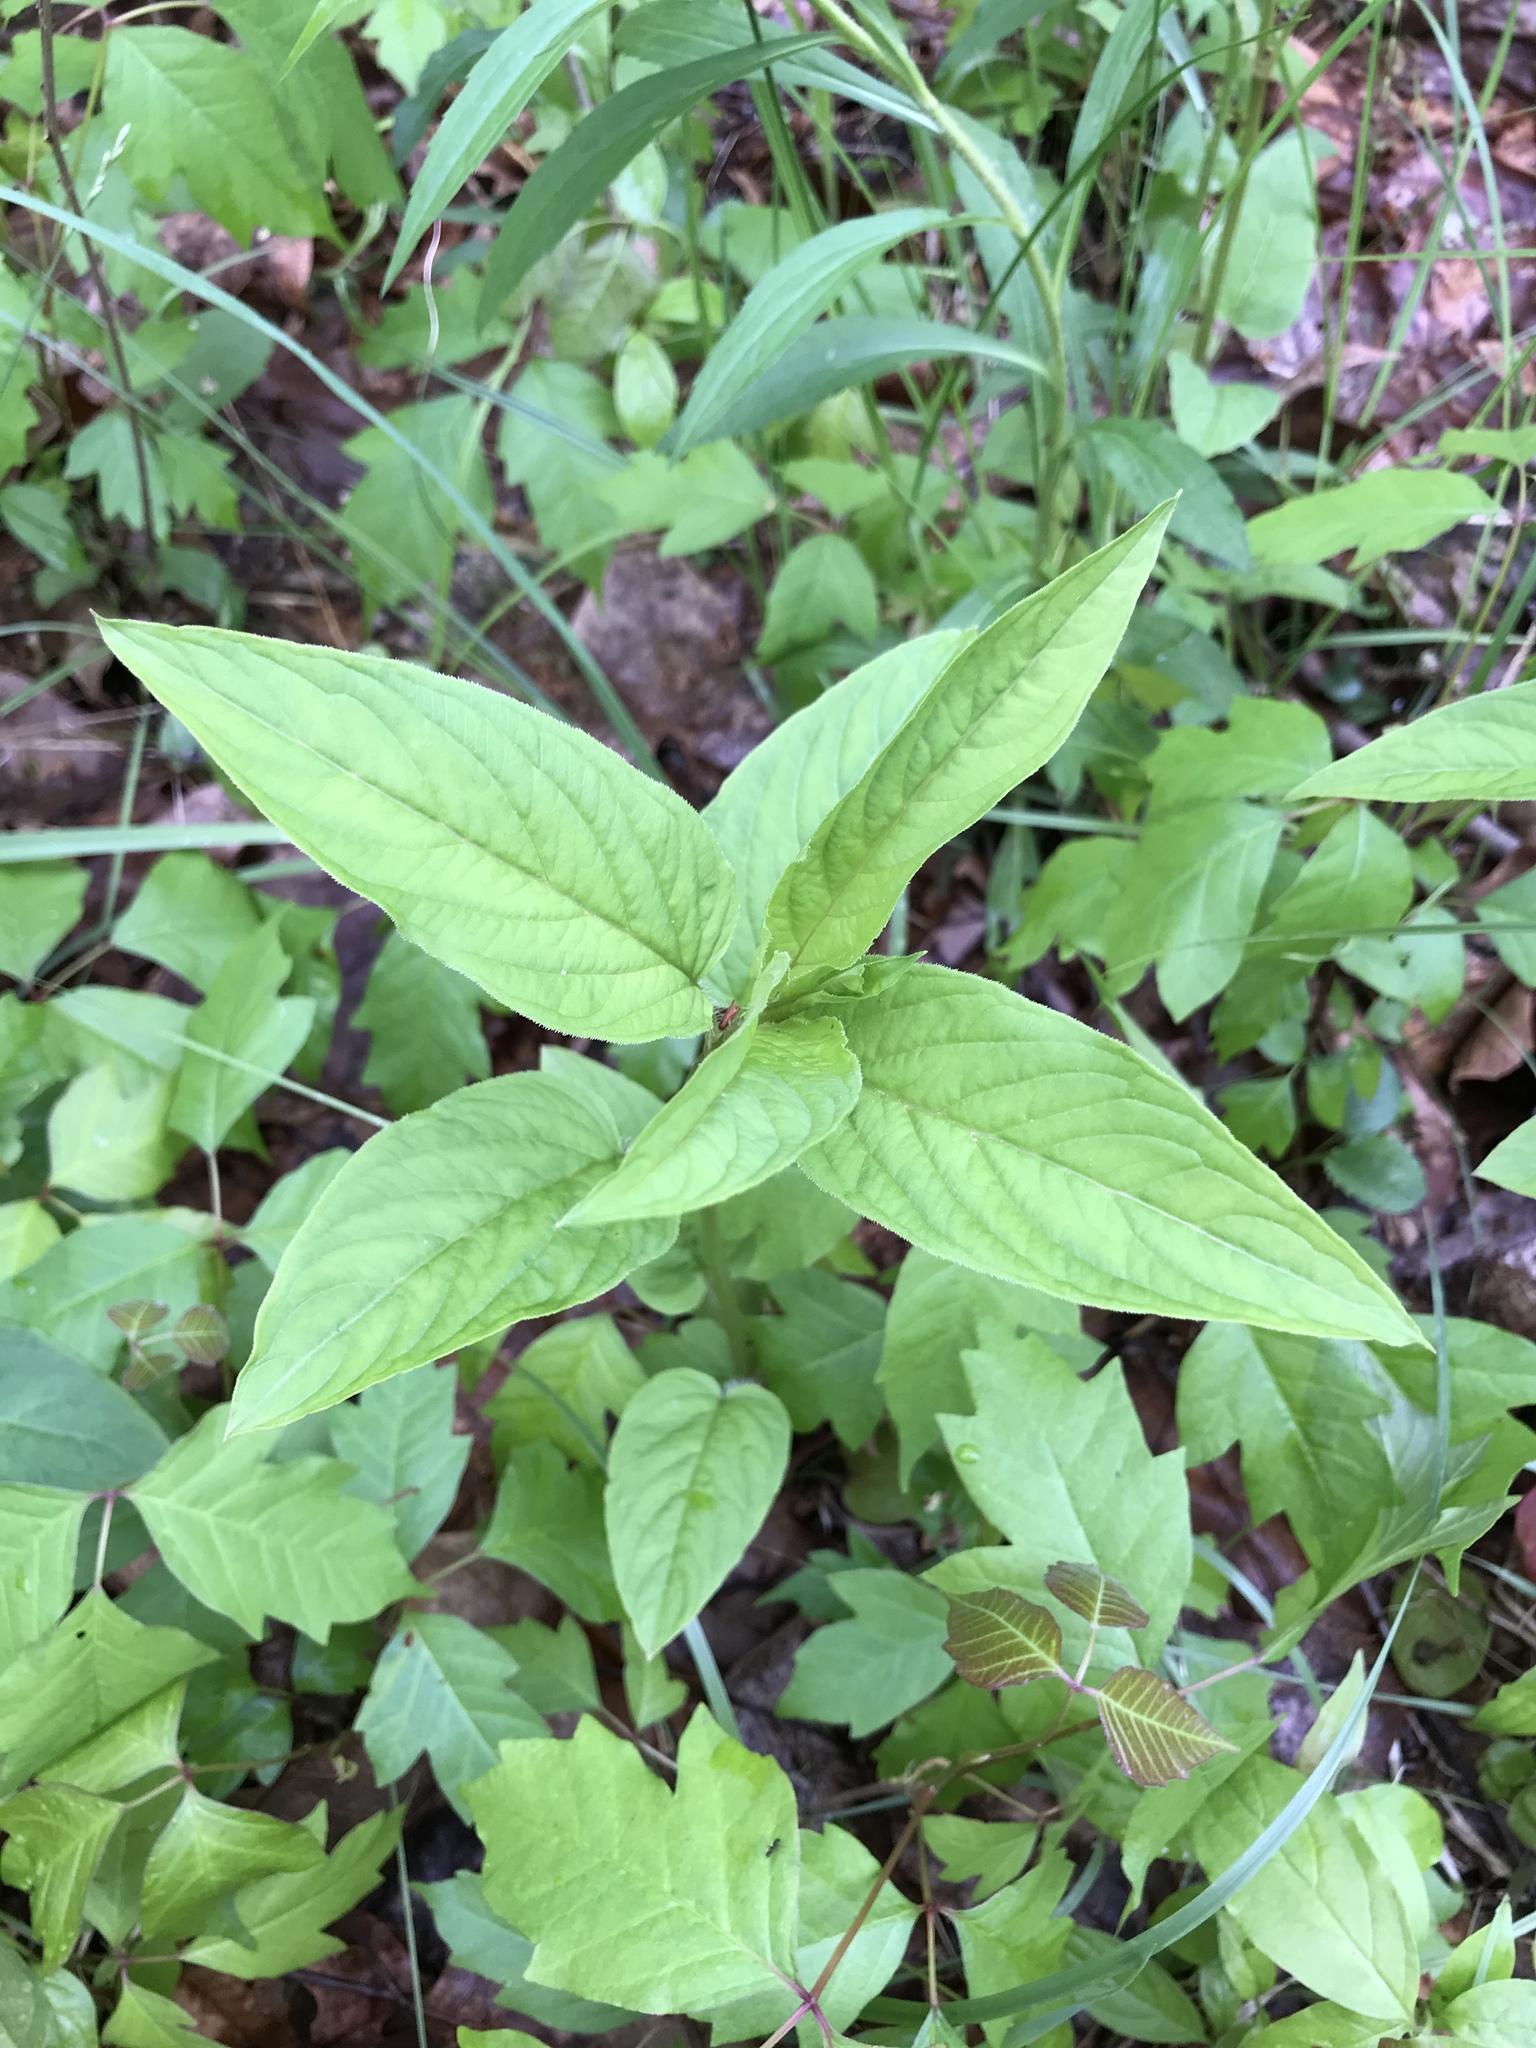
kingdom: Plantae
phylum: Tracheophyta
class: Magnoliopsida
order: Ericales
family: Primulaceae
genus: Lysimachia
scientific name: Lysimachia ciliata
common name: Fringed loosestrife
